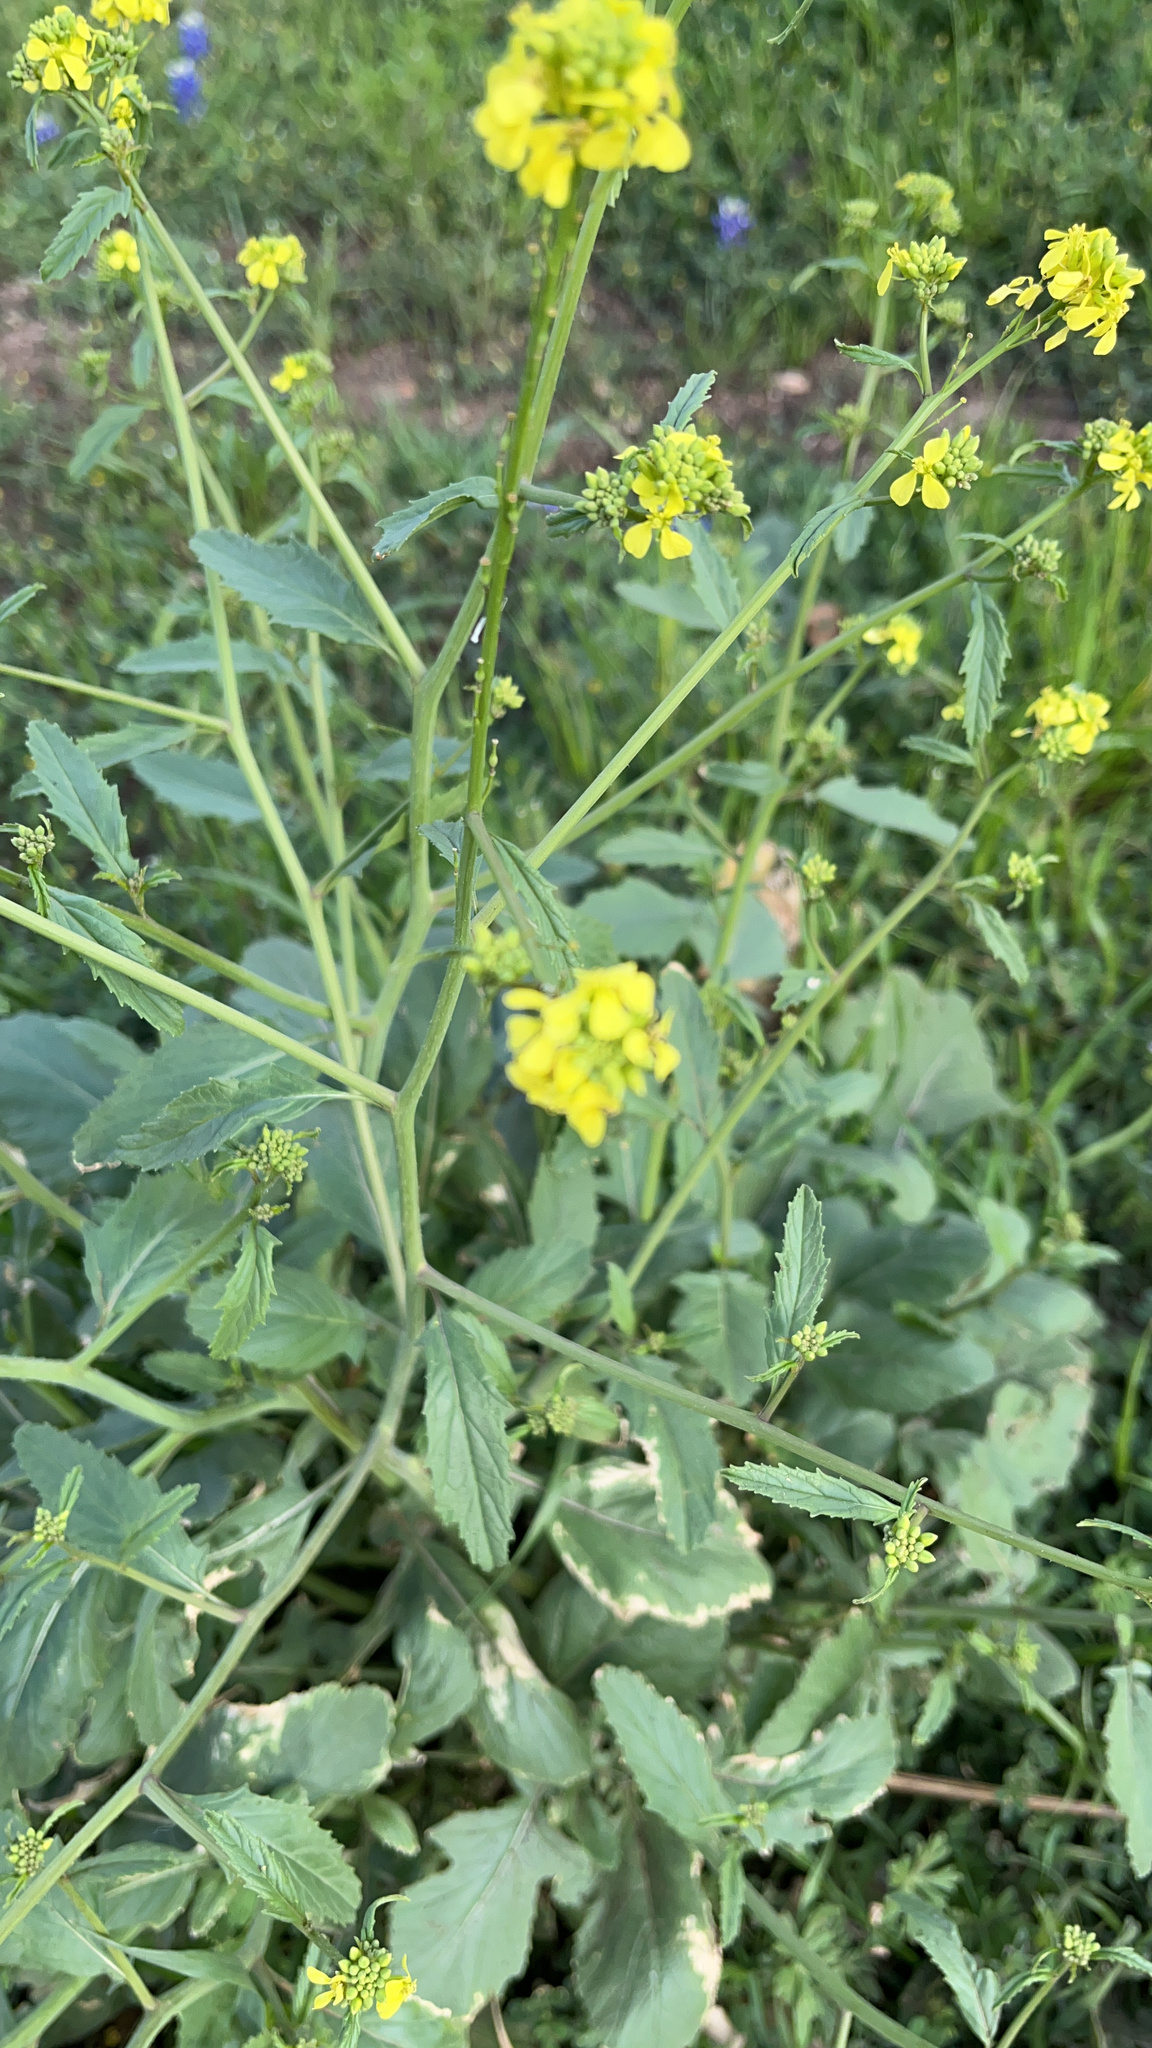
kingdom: Plantae
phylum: Tracheophyta
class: Magnoliopsida
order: Brassicales
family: Brassicaceae
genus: Rapistrum
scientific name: Rapistrum rugosum
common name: Annual bastardcabbage
